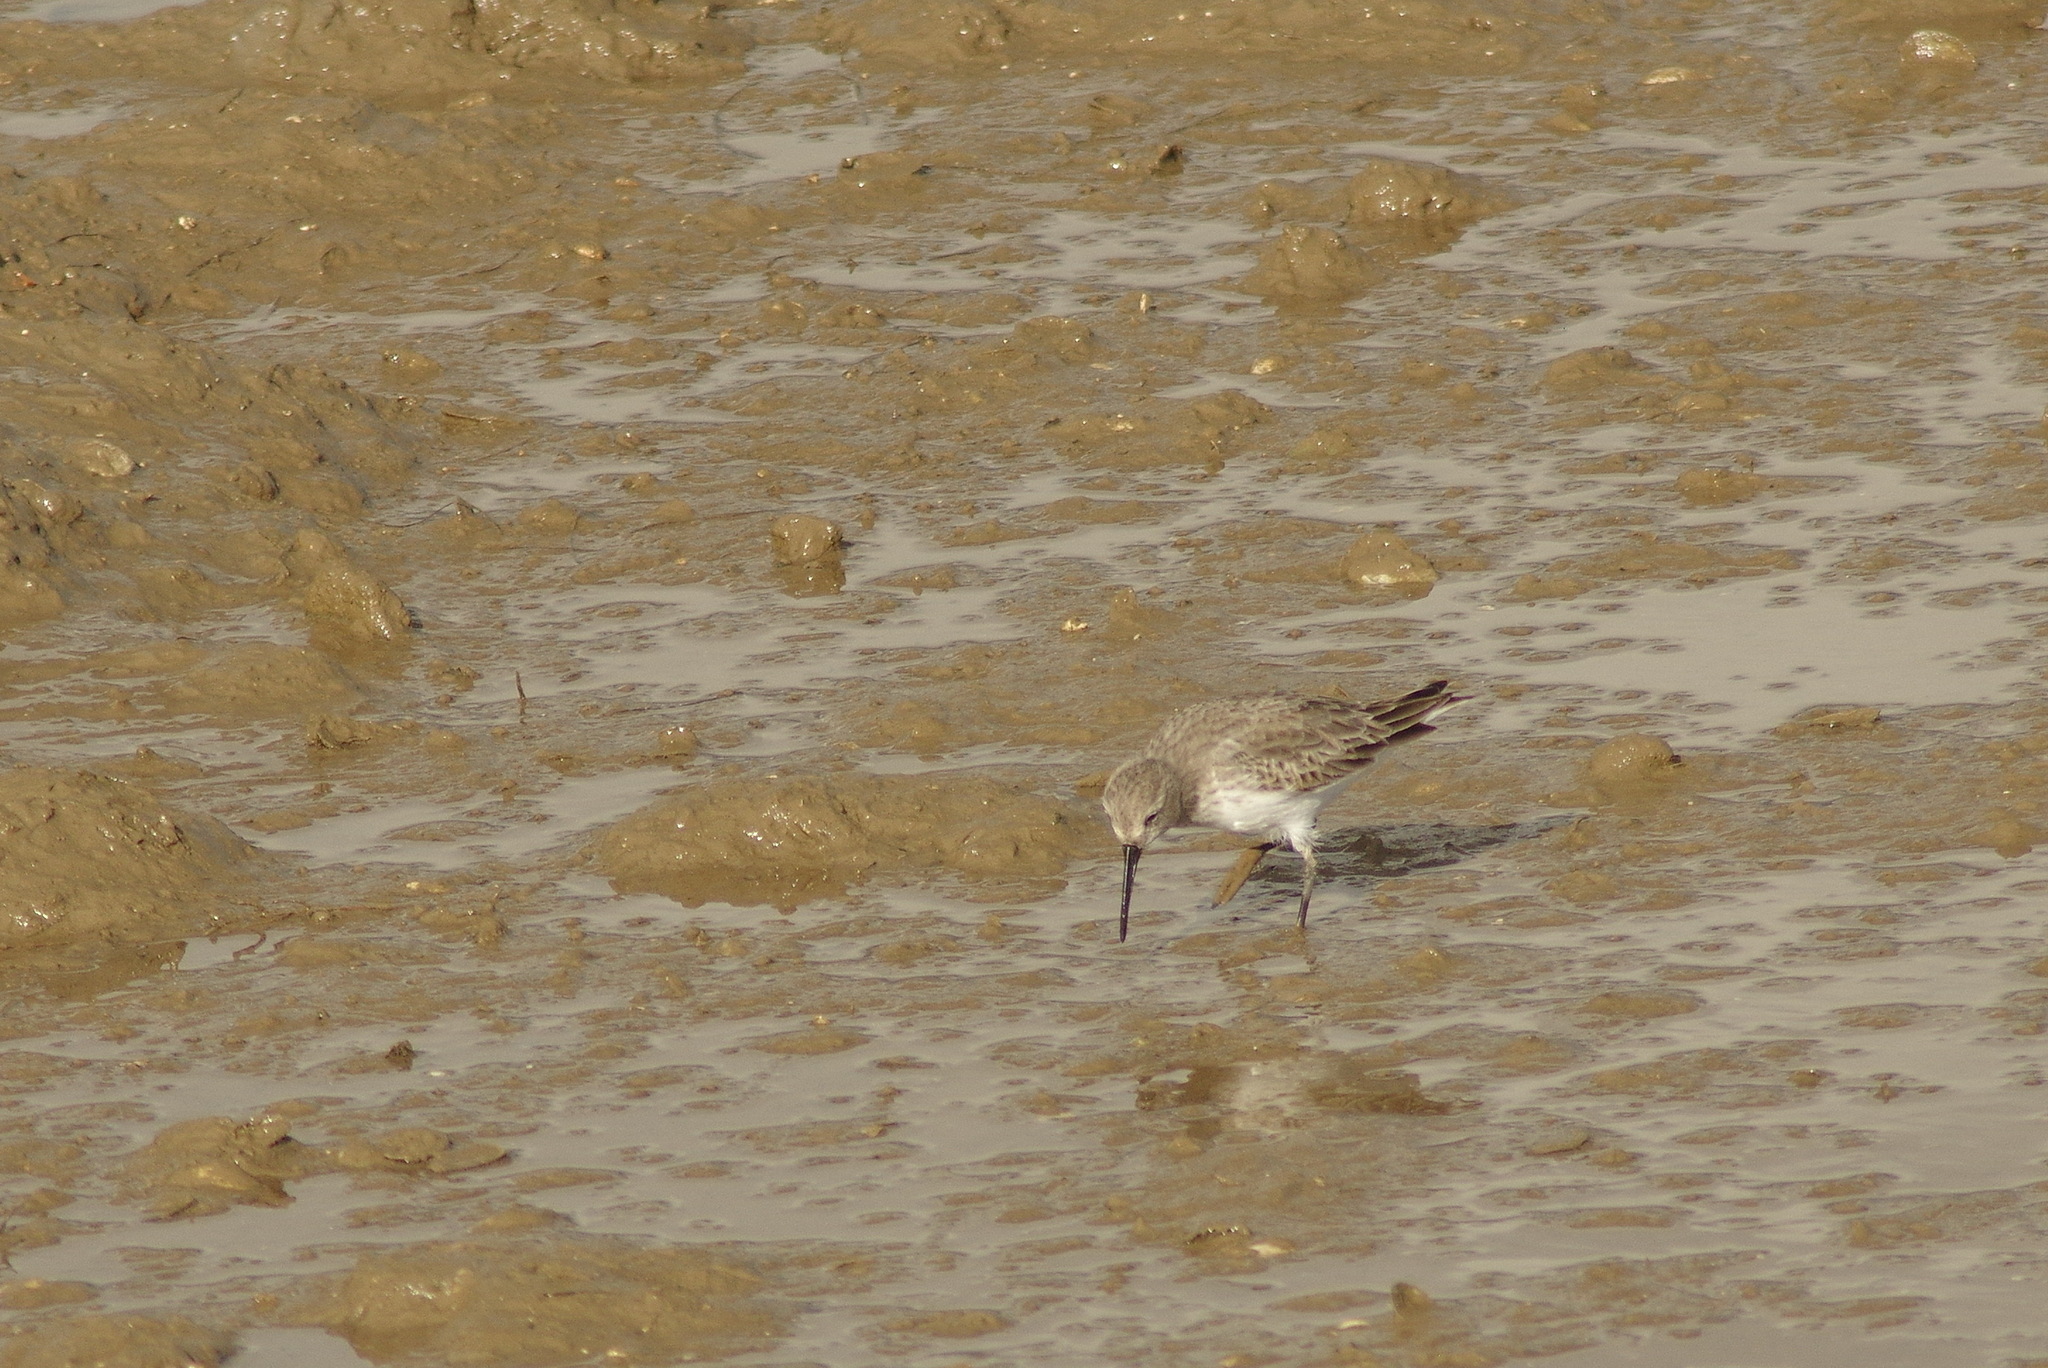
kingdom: Animalia
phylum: Chordata
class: Aves
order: Charadriiformes
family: Scolopacidae
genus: Calidris
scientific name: Calidris alpina
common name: Dunlin
